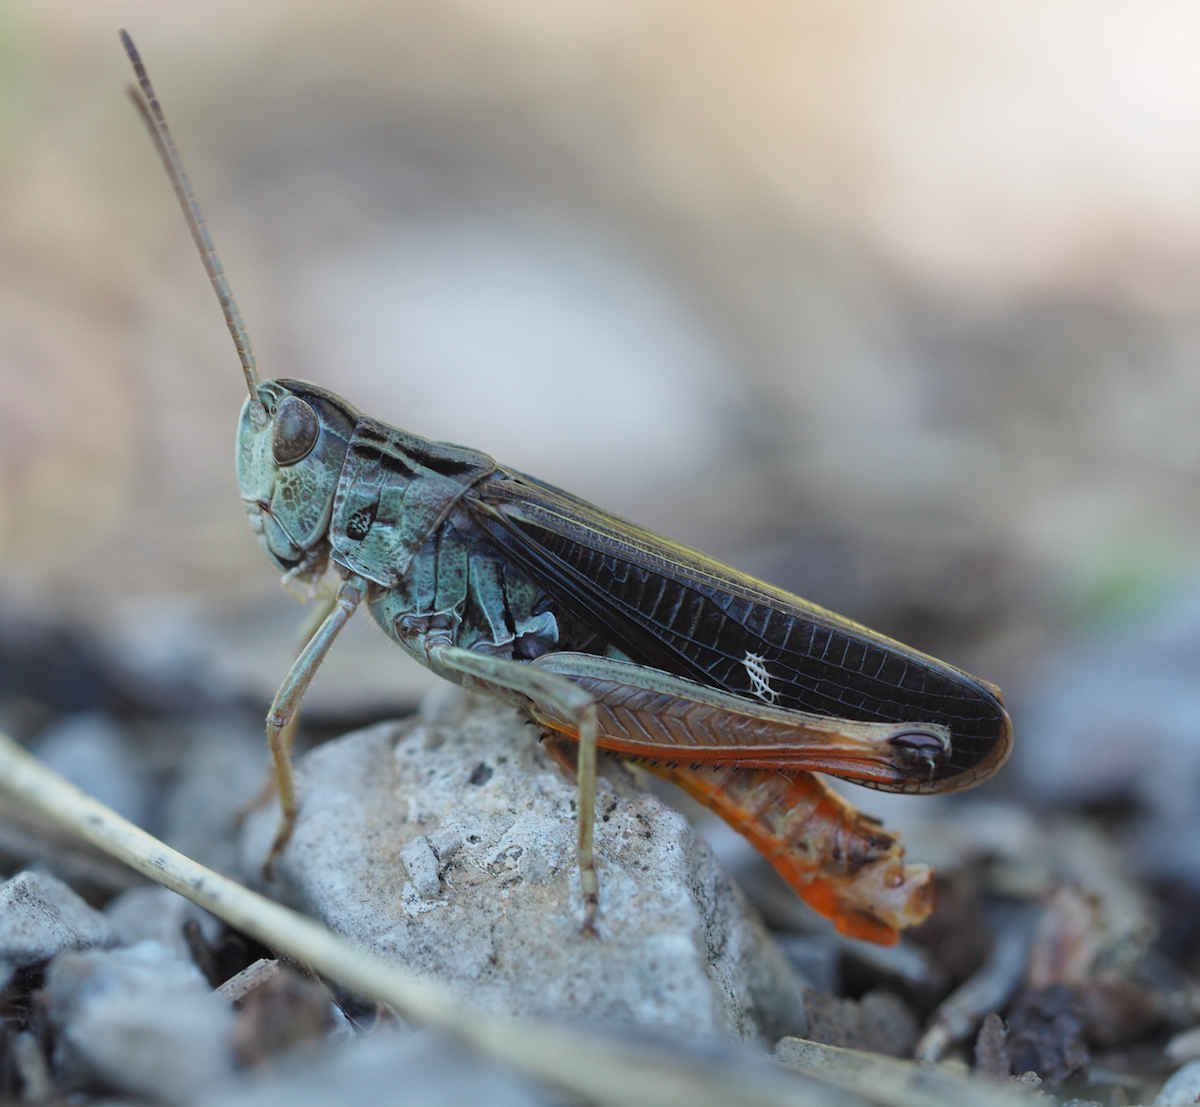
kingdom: Animalia
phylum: Arthropoda
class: Insecta
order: Orthoptera
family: Acrididae
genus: Stenobothrus
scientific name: Stenobothrus rubicundulus
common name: Wing-buzzing grasshopper
